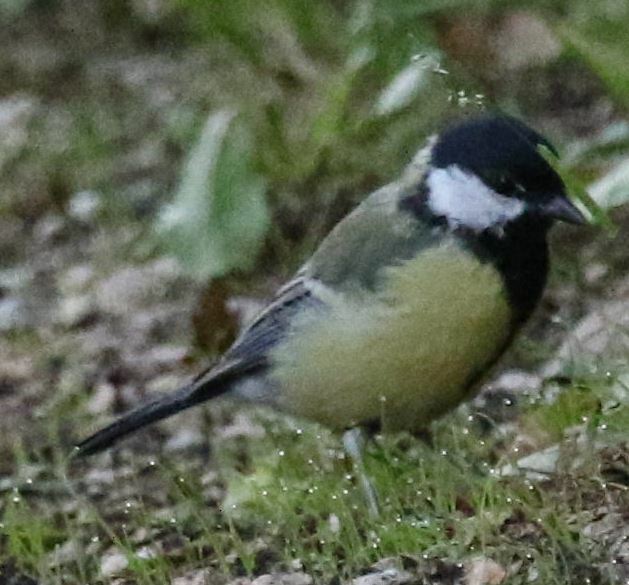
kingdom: Animalia
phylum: Chordata
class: Aves
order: Passeriformes
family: Paridae
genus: Parus
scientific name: Parus major
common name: Great tit
